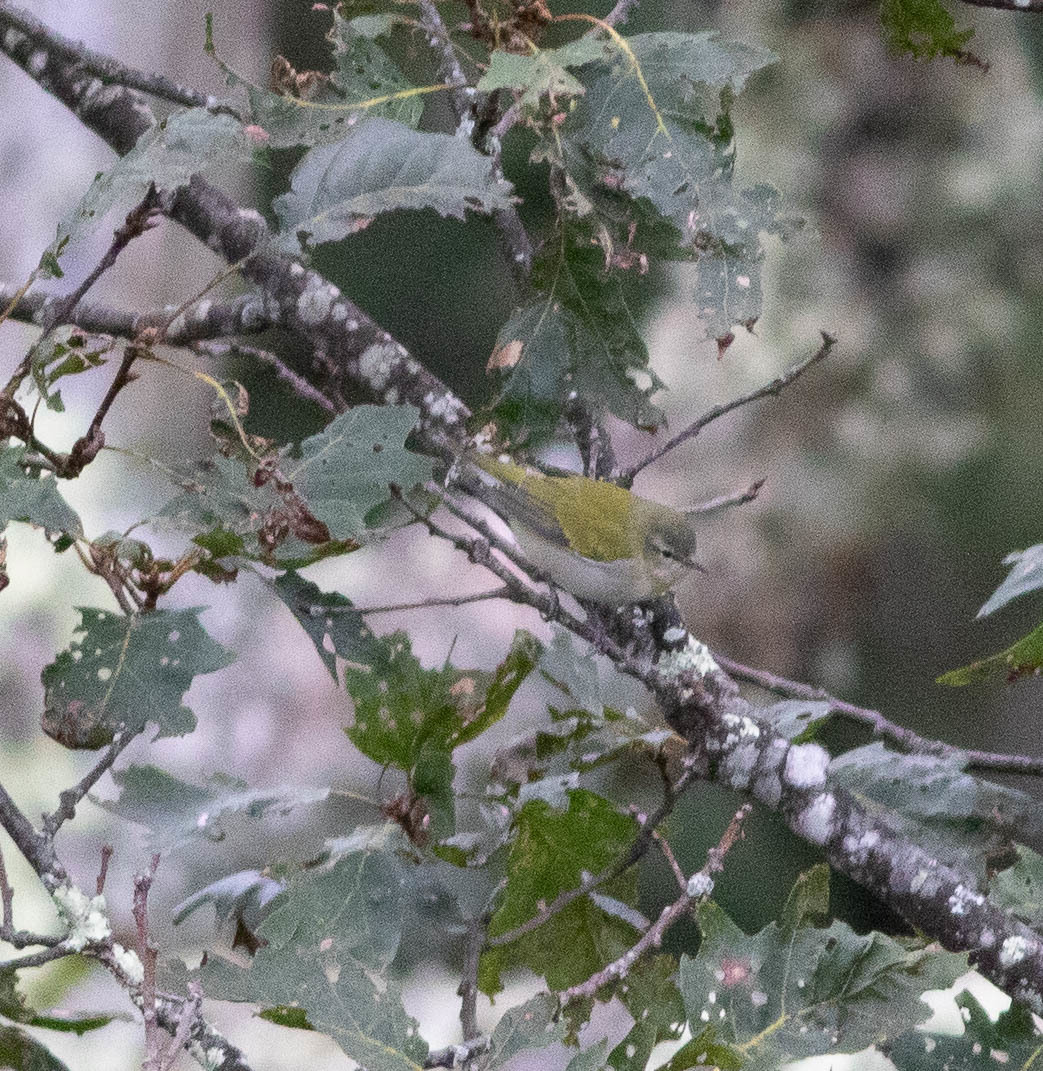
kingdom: Animalia
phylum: Chordata
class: Aves
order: Passeriformes
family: Parulidae
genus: Leiothlypis
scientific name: Leiothlypis peregrina
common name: Tennessee warbler
